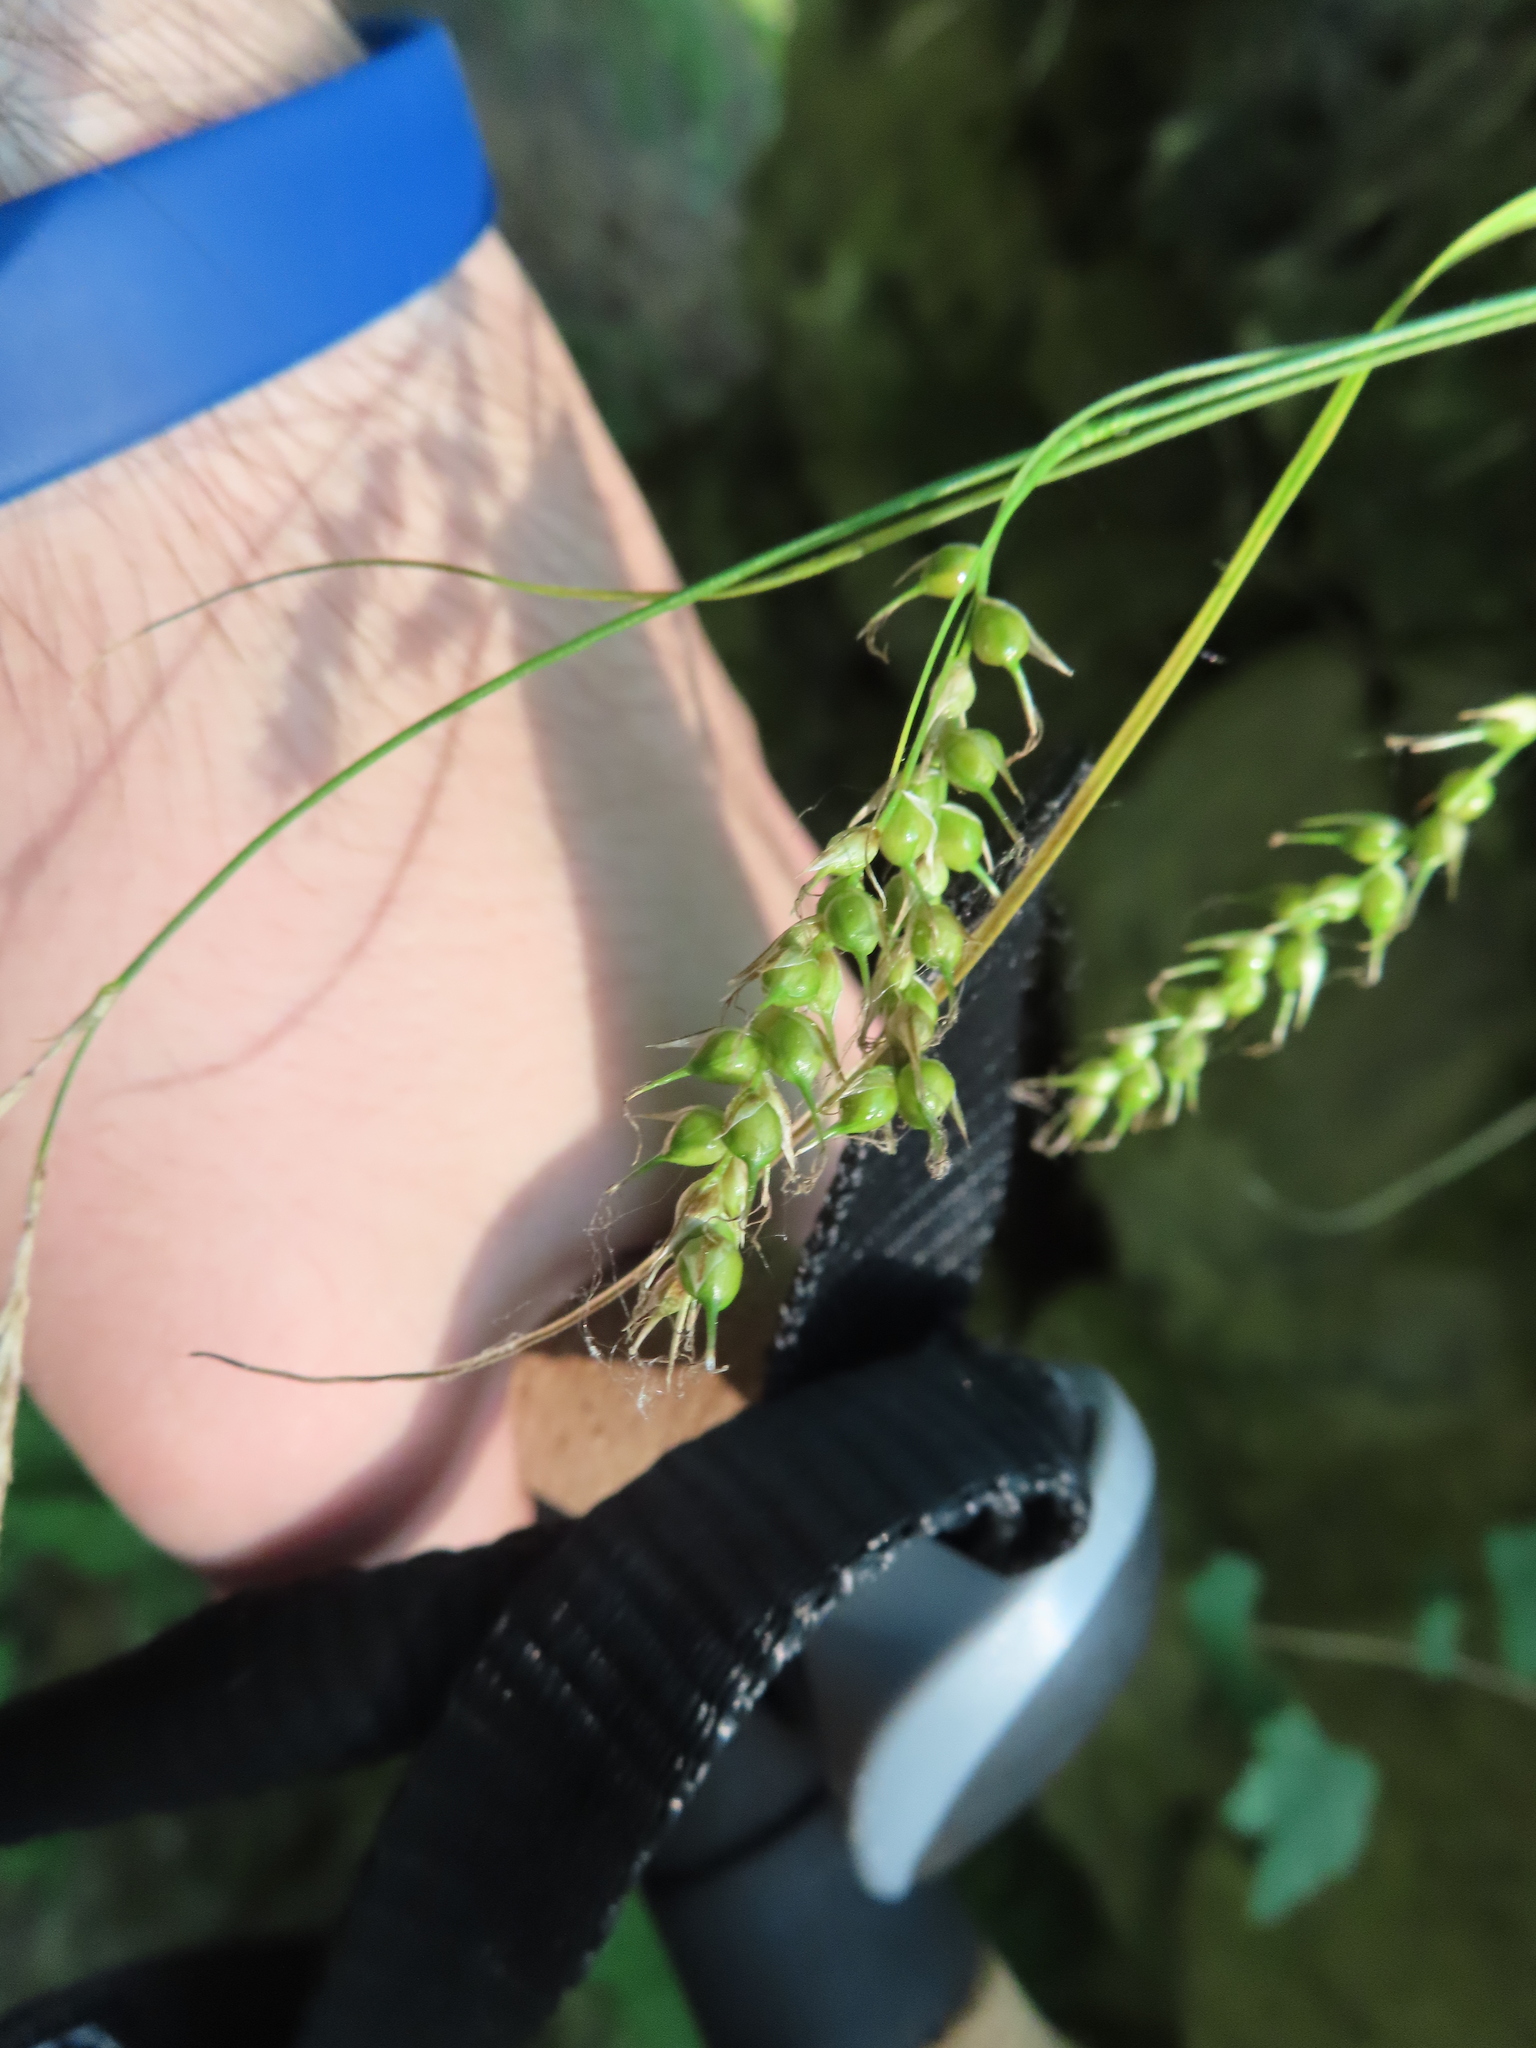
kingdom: Plantae
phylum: Tracheophyta
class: Liliopsida
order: Poales
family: Cyperaceae
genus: Carex
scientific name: Carex sprengelii
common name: Long-beaked sedge
